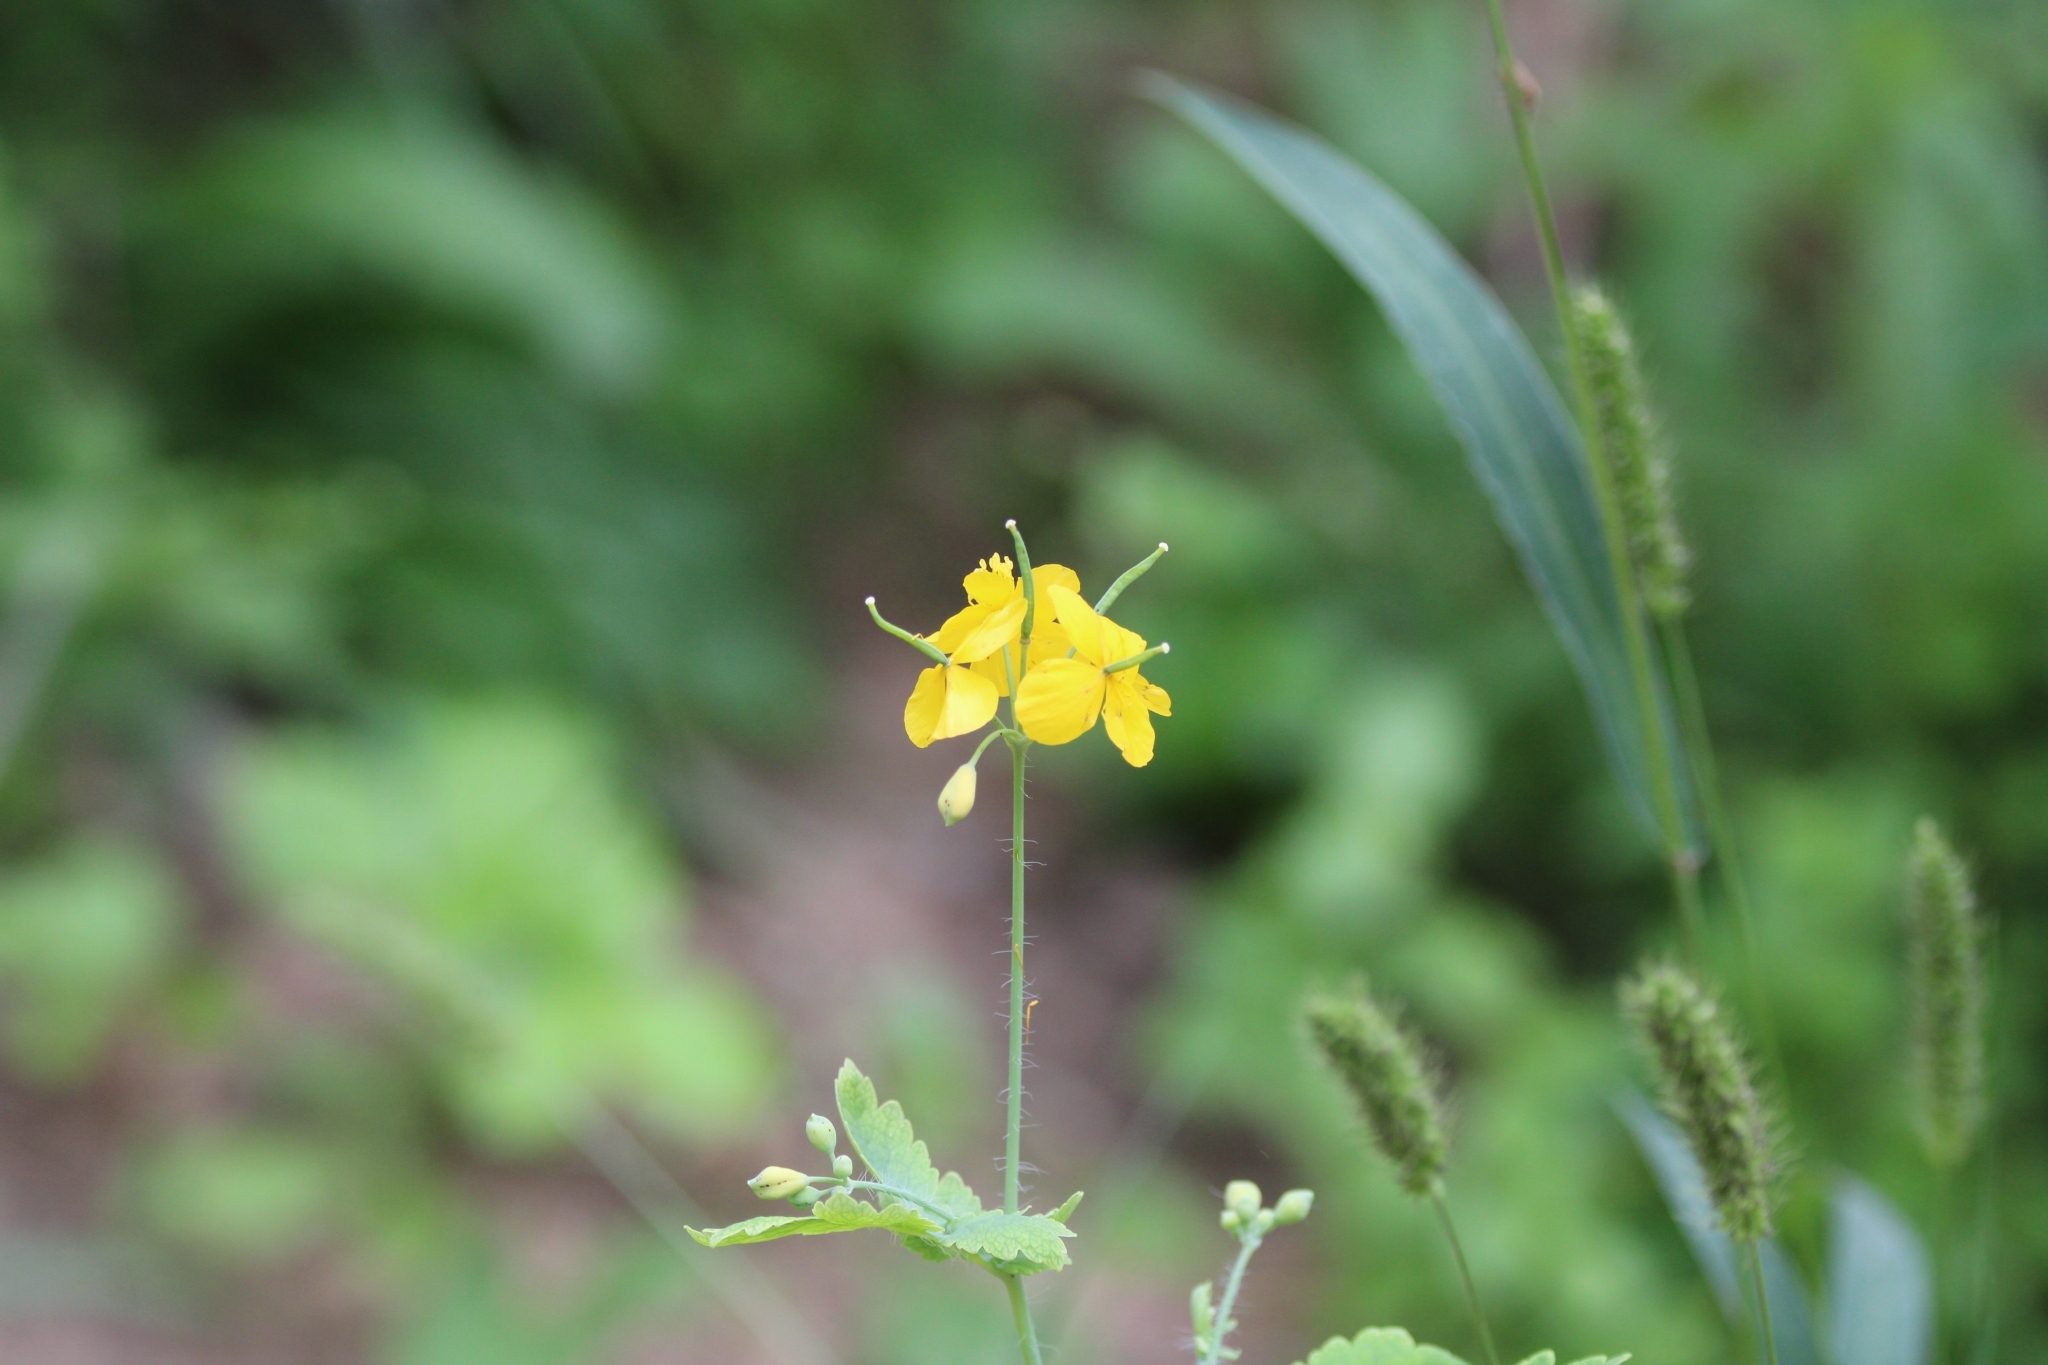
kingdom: Plantae
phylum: Tracheophyta
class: Magnoliopsida
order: Ranunculales
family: Papaveraceae
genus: Chelidonium
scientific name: Chelidonium majus
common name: Greater celandine
